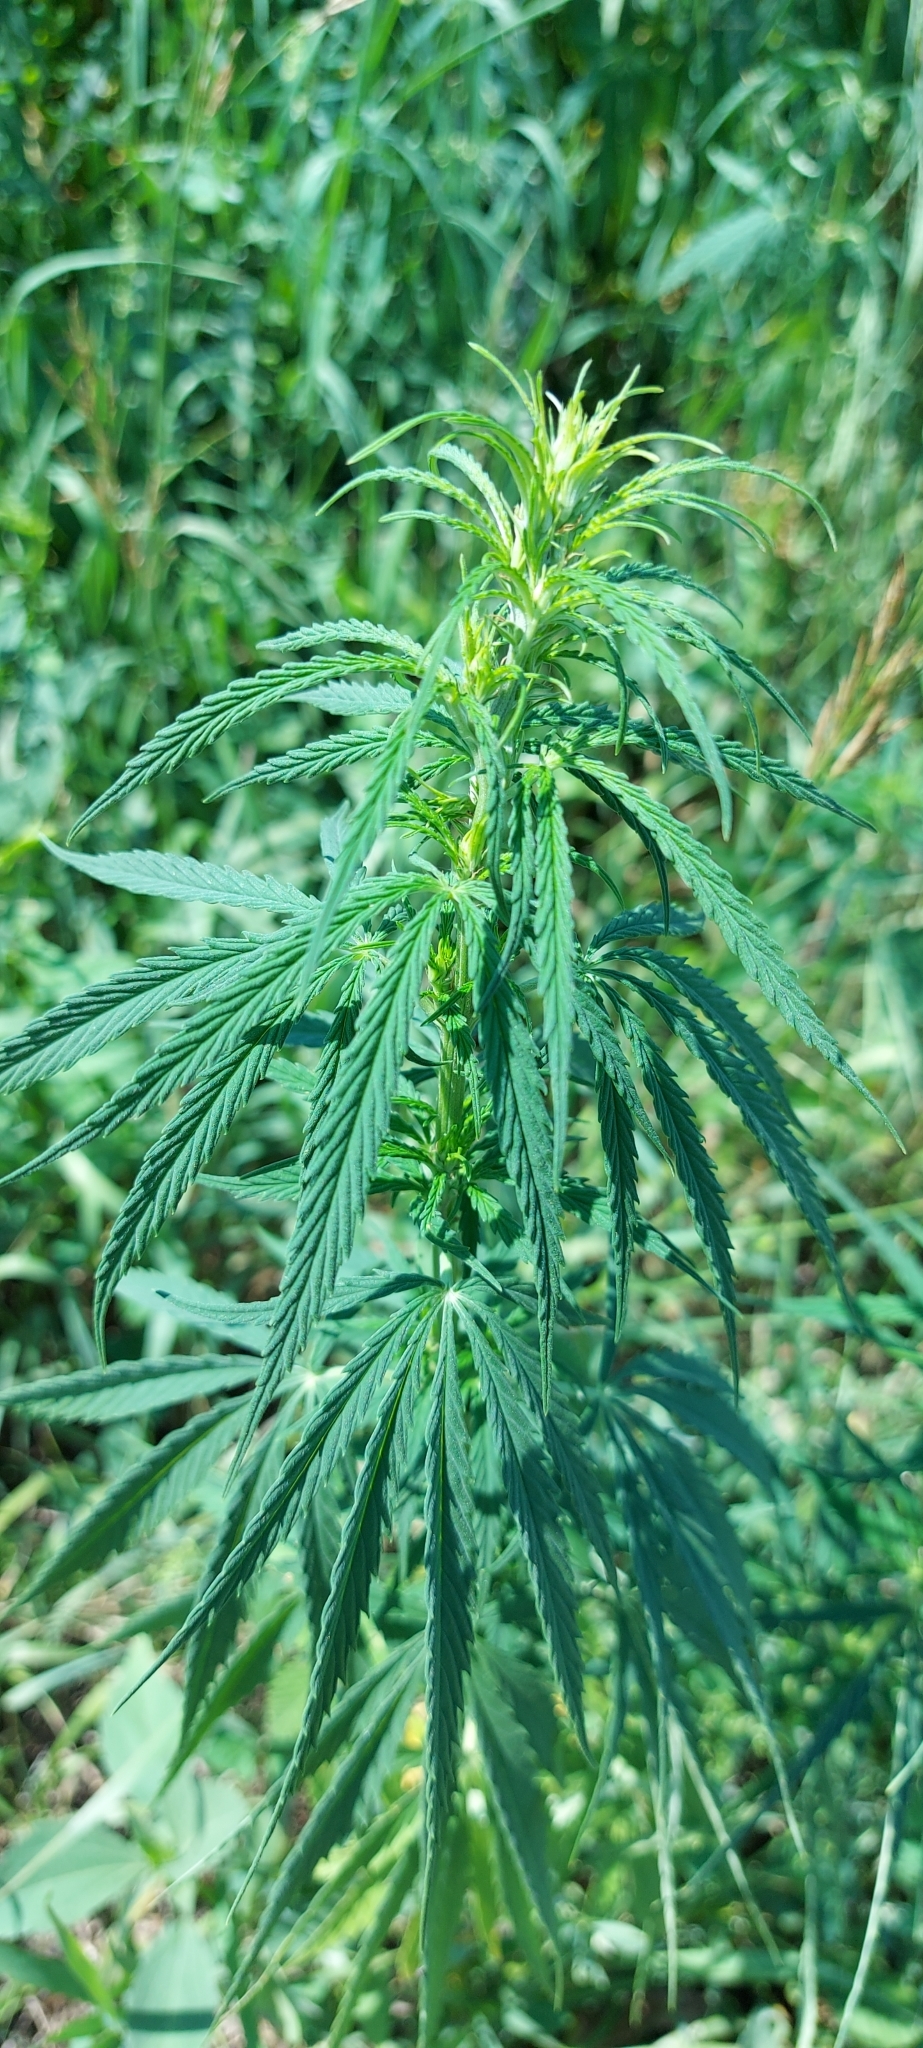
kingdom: Plantae
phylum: Tracheophyta
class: Magnoliopsida
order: Rosales
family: Cannabaceae
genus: Cannabis
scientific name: Cannabis sativa
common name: Hemp
